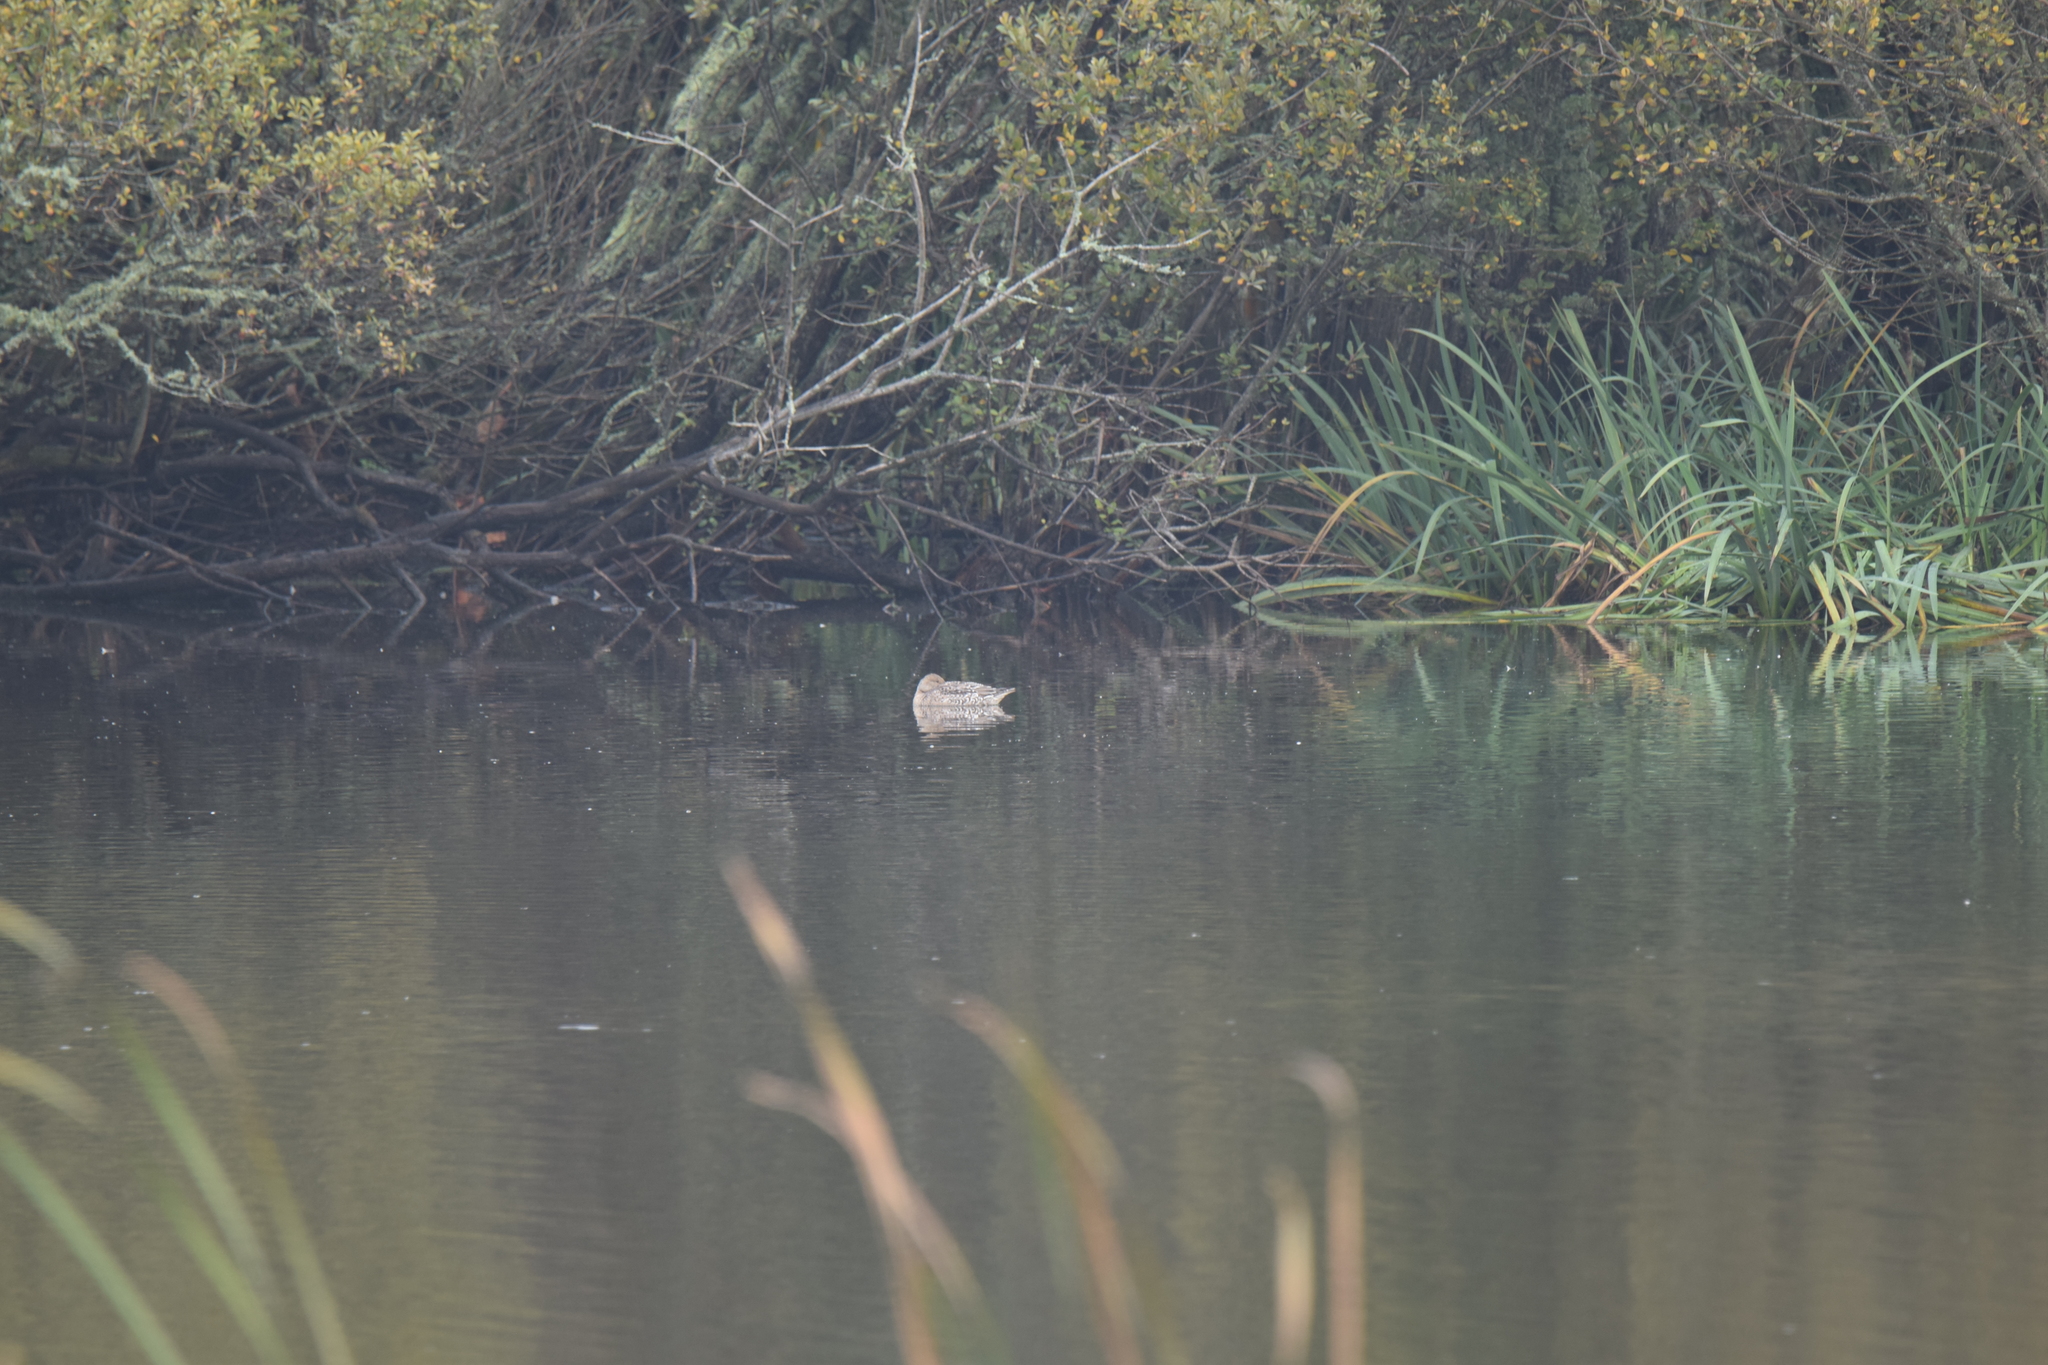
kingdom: Animalia
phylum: Chordata
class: Aves
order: Anseriformes
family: Anatidae
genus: Anas
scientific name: Anas acuta
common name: Northern pintail
